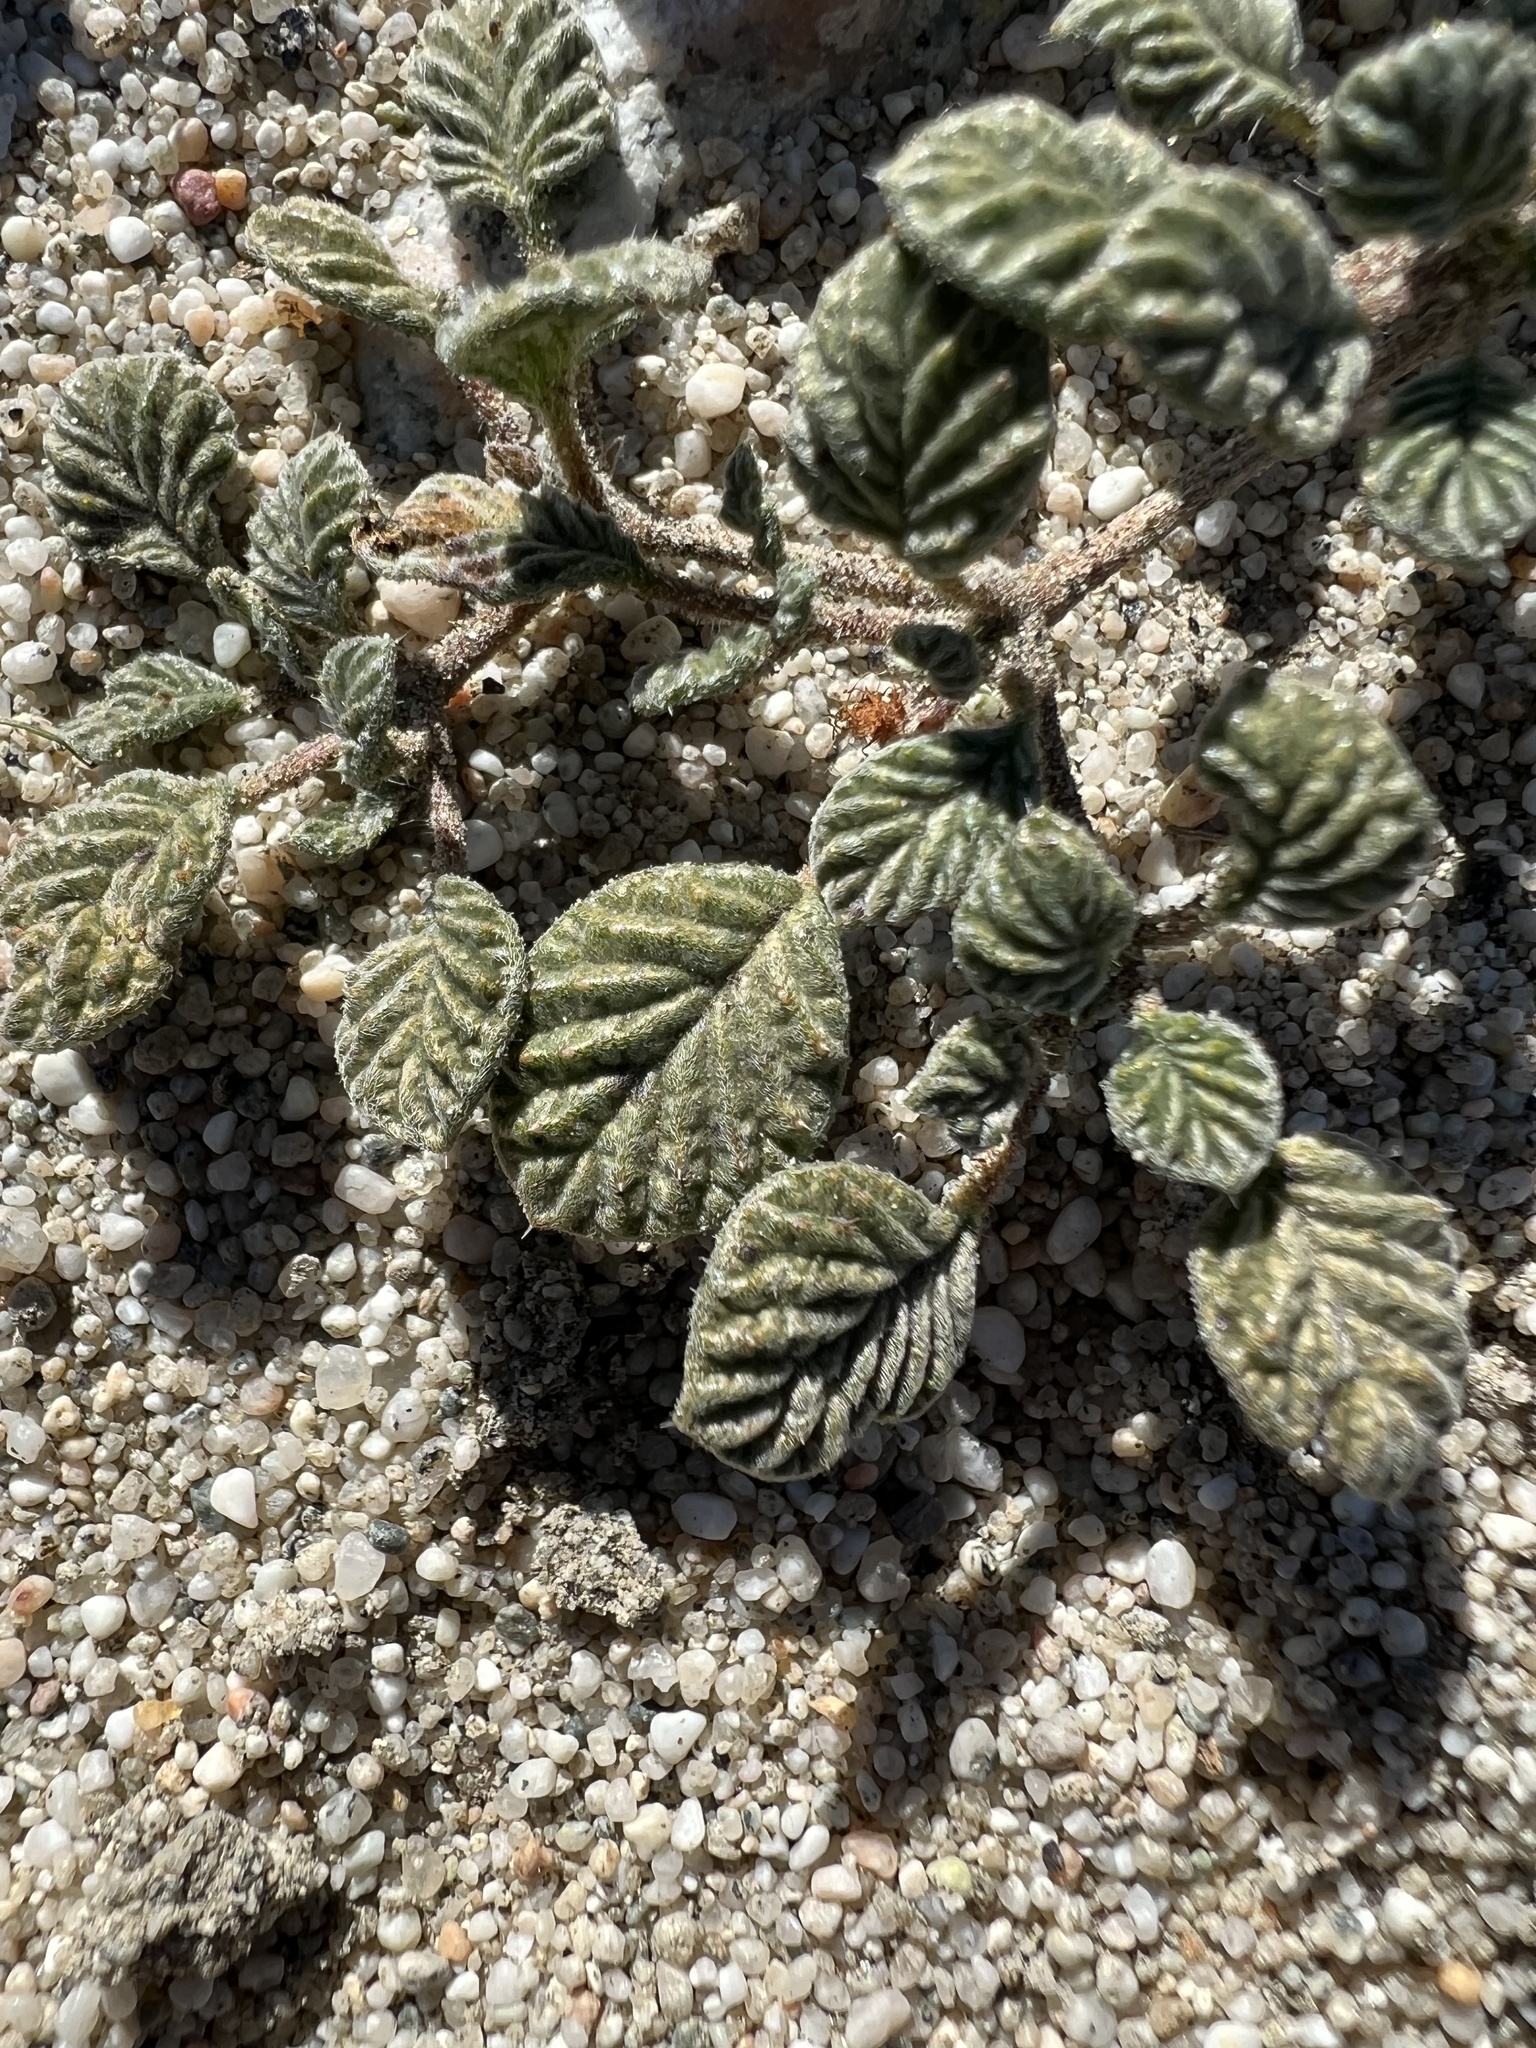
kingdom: Plantae
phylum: Tracheophyta
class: Magnoliopsida
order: Boraginales
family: Ehretiaceae
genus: Tiquilia
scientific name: Tiquilia plicata
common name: Fan-leaf tiquilia
